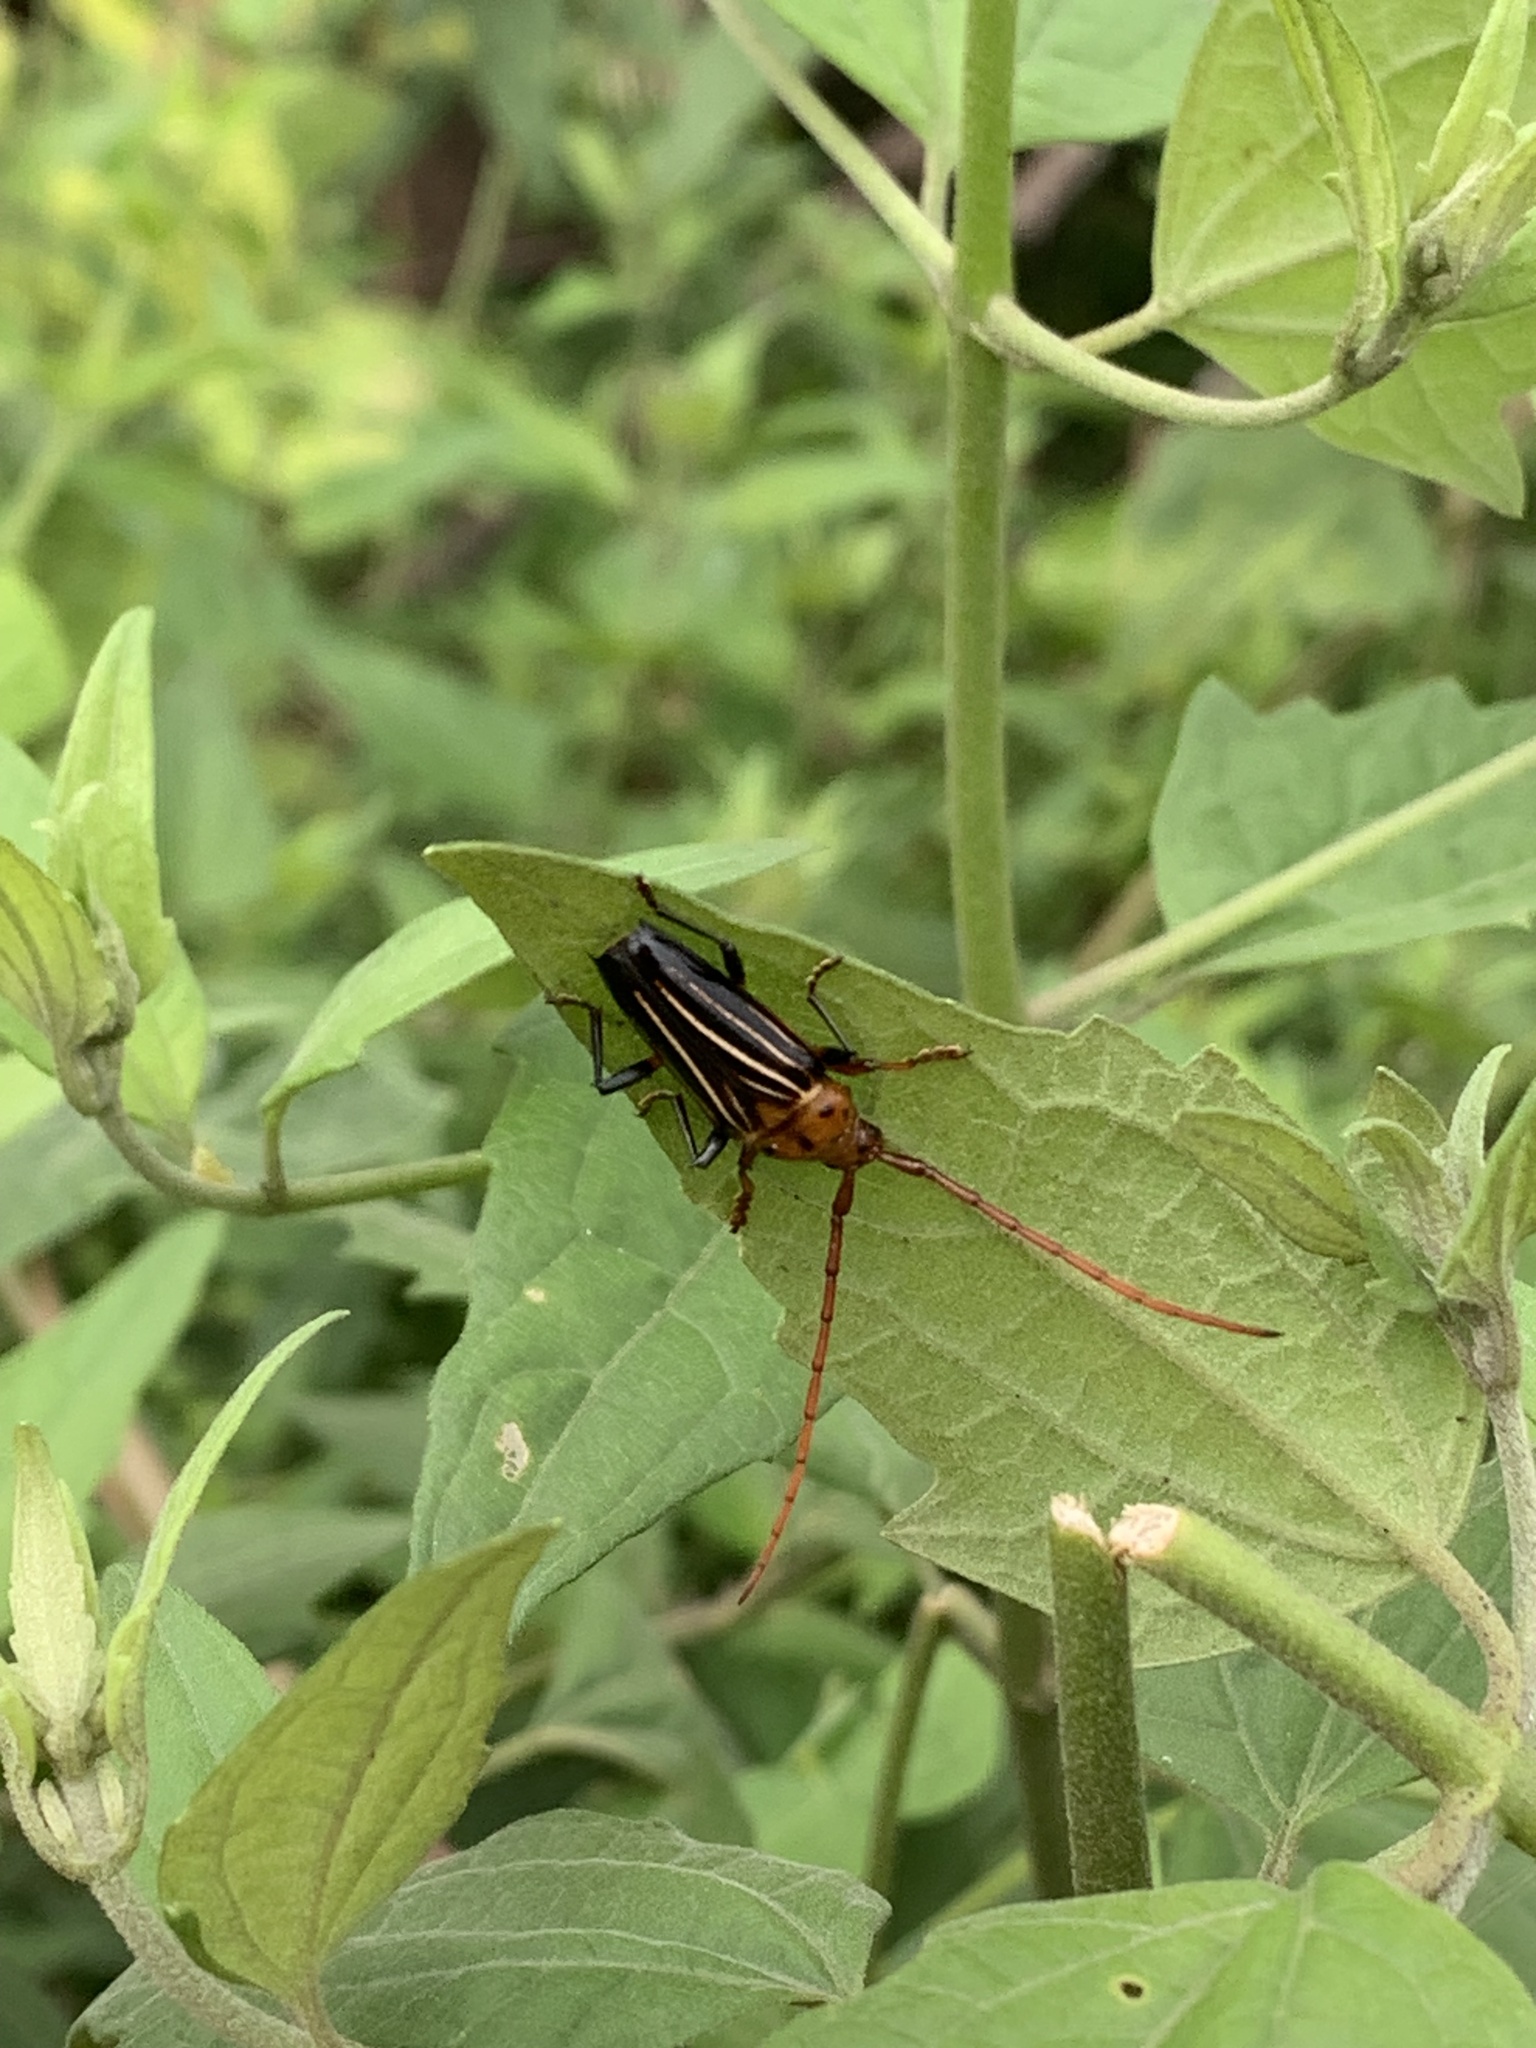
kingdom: Animalia
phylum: Arthropoda
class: Insecta
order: Coleoptera
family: Cerambycidae
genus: Oxymerus
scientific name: Oxymerus aculeatus
